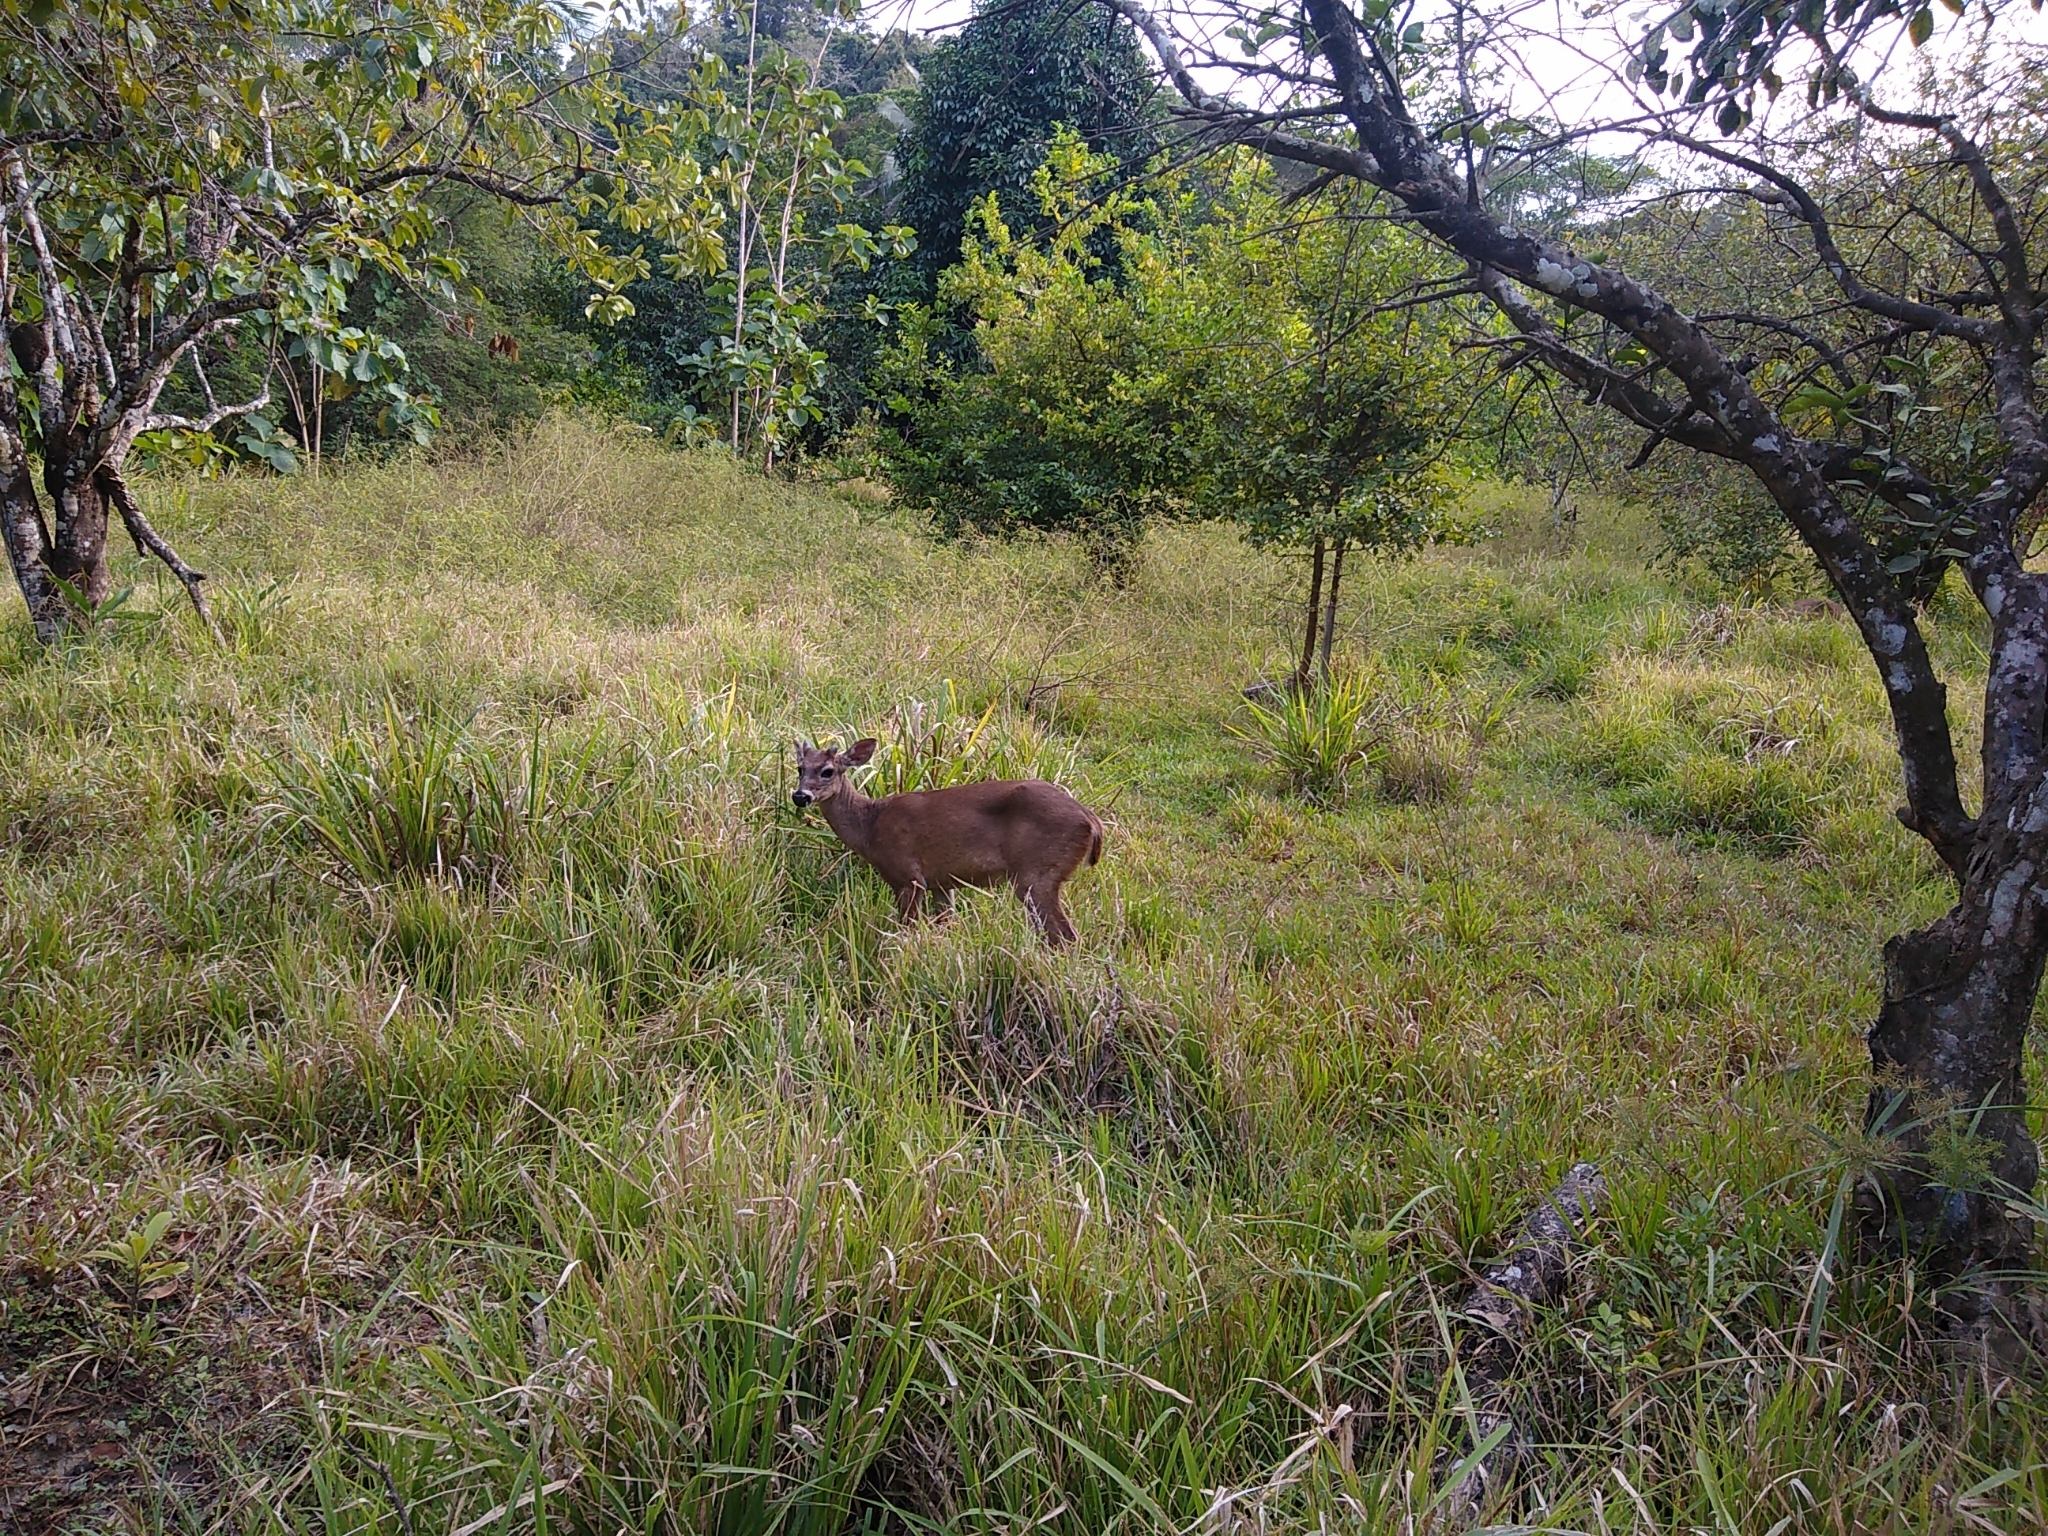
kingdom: Animalia
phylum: Chordata
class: Mammalia
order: Artiodactyla
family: Cervidae
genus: Odocoileus
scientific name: Odocoileus virginianus
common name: White-tailed deer
